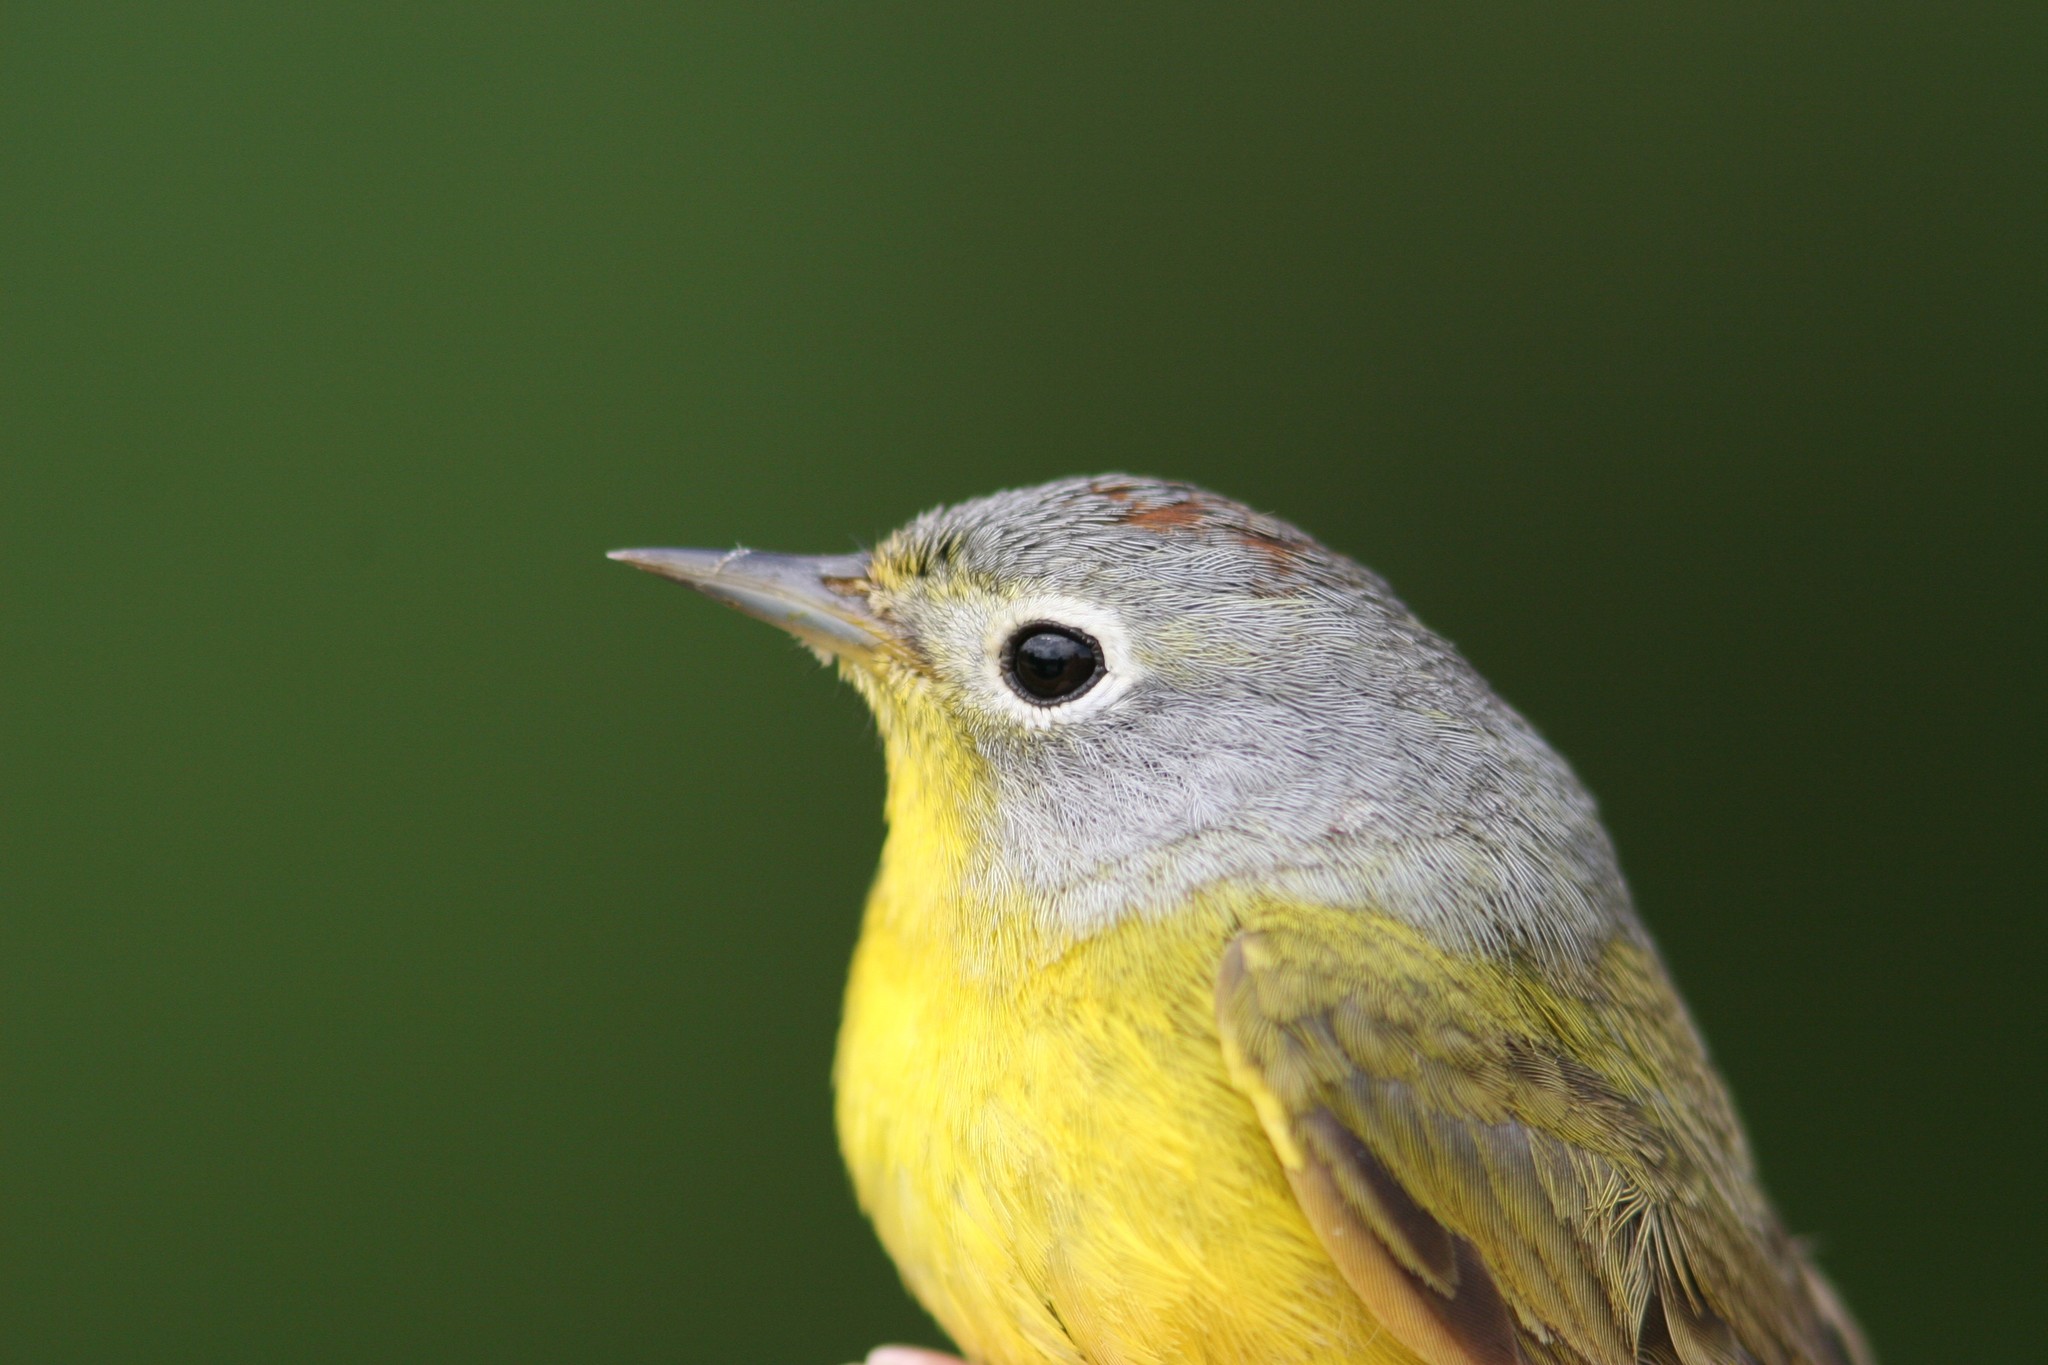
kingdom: Animalia
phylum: Chordata
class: Aves
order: Passeriformes
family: Parulidae
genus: Leiothlypis
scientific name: Leiothlypis ruficapilla
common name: Nashville warbler
